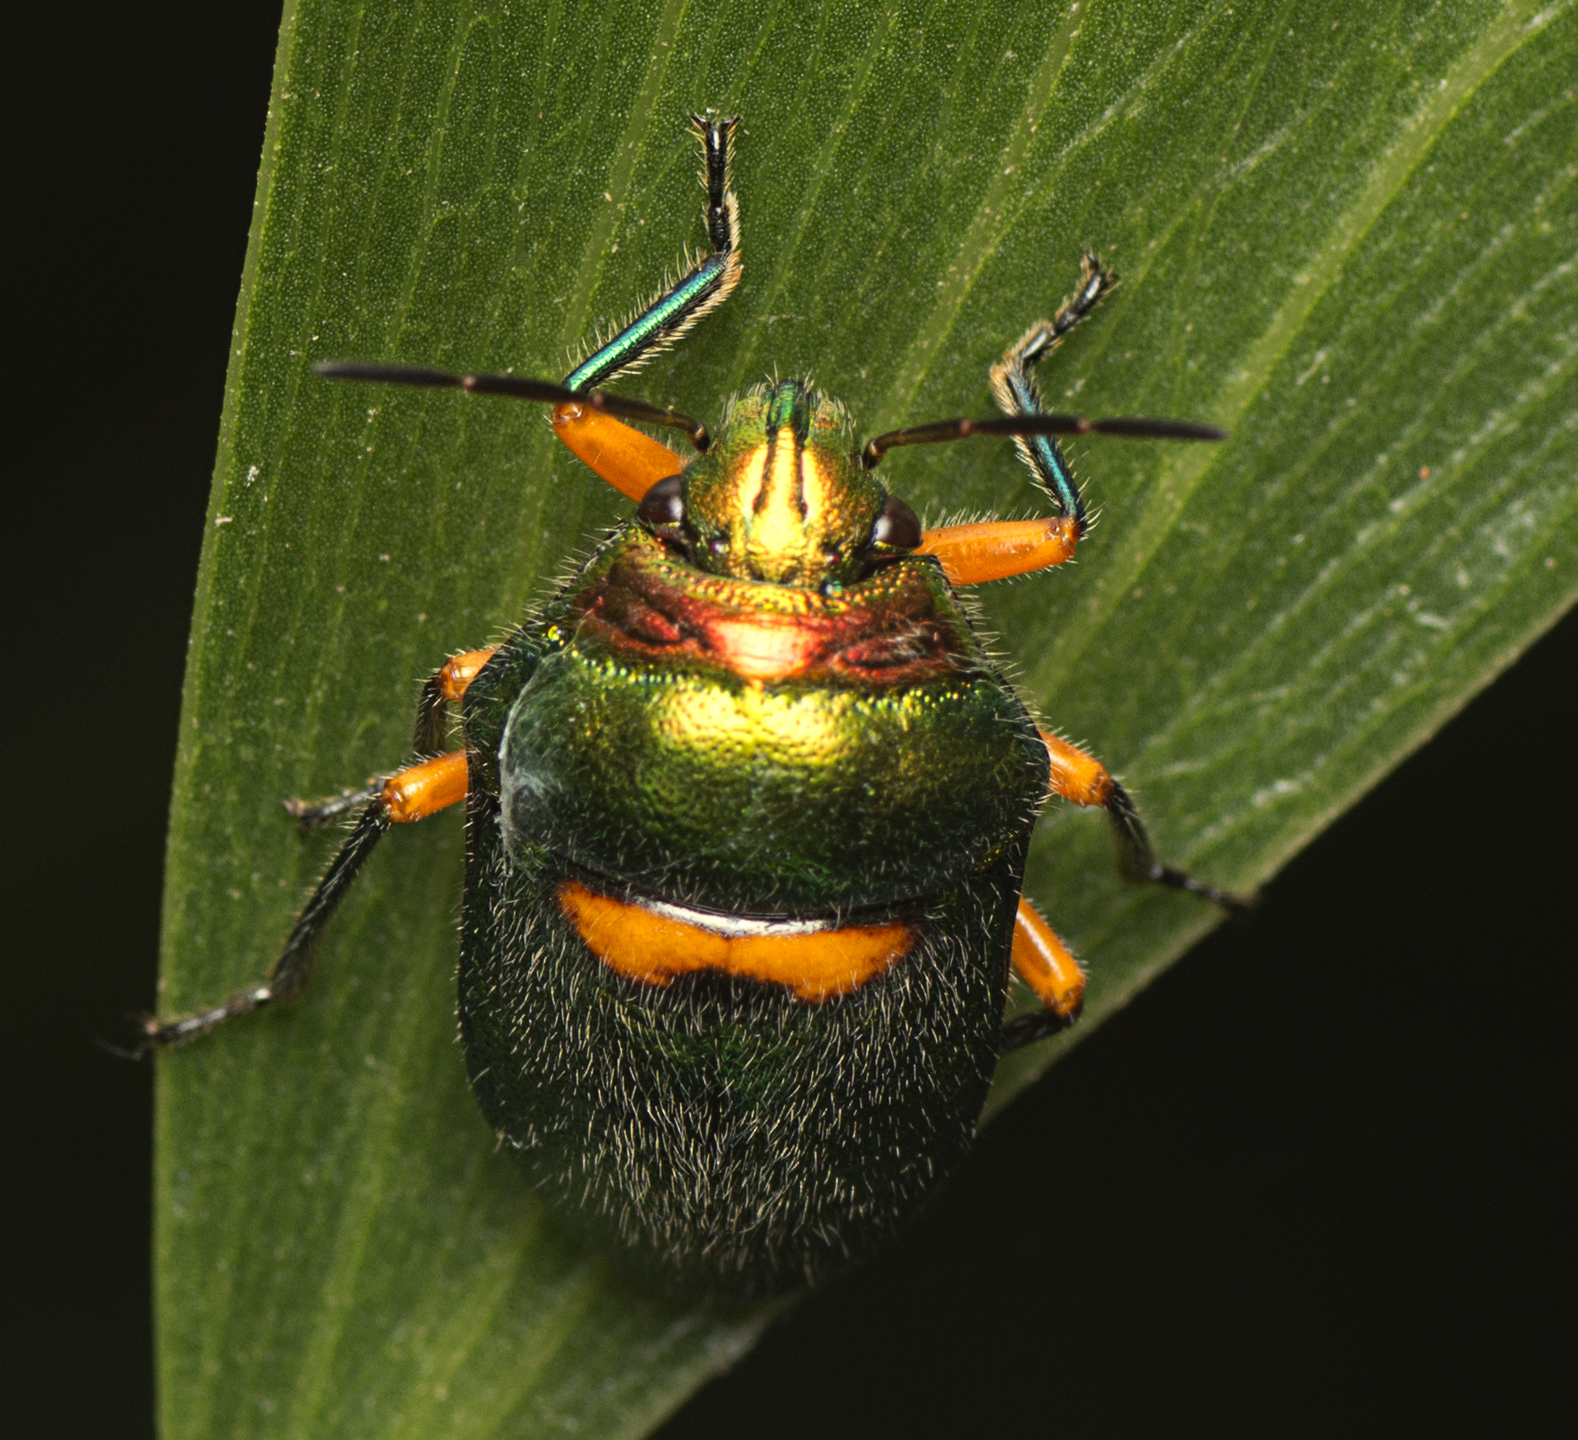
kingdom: Animalia
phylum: Arthropoda
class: Insecta
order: Hemiptera
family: Scutelleridae
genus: Lampromicra
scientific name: Lampromicra senator
